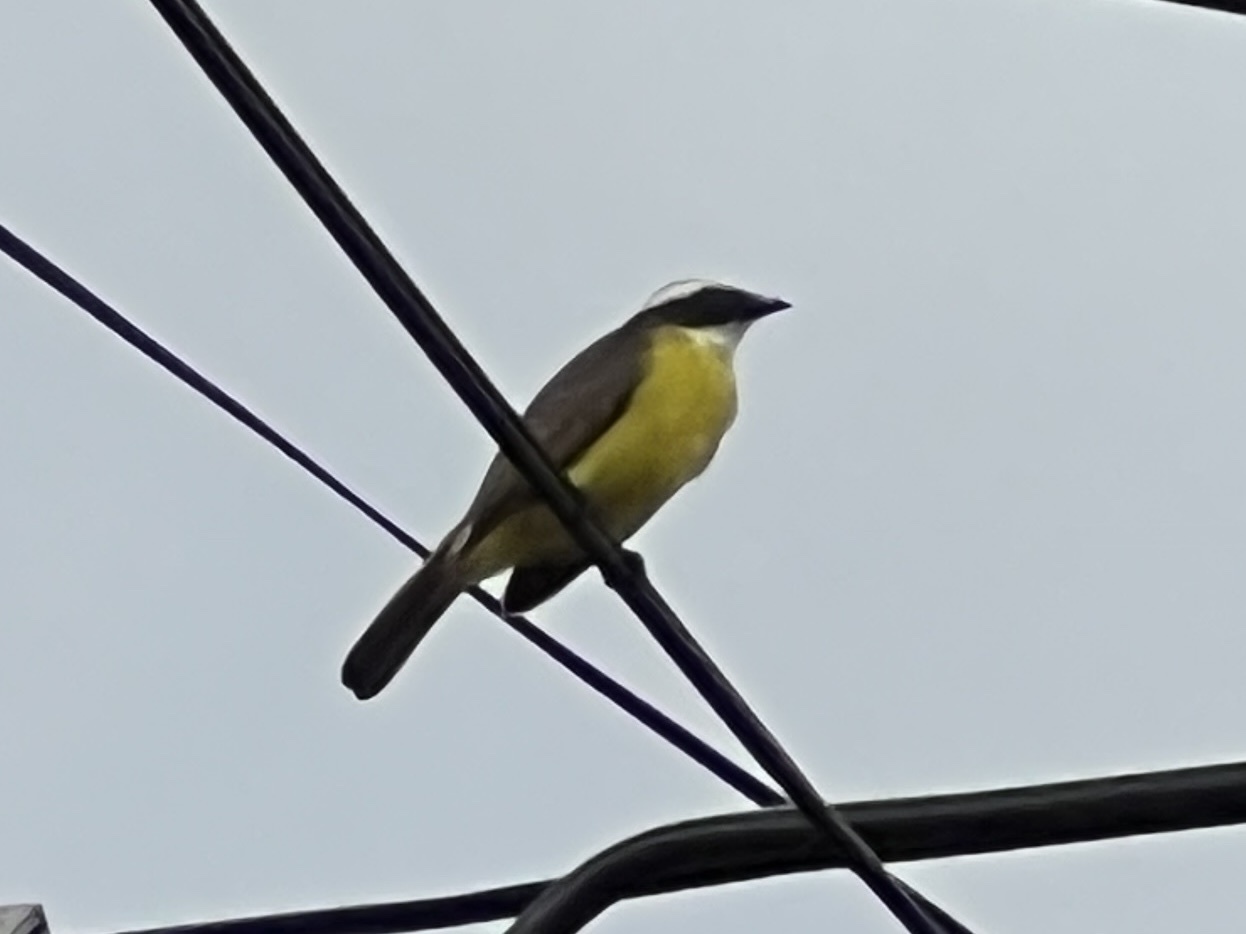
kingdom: Animalia
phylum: Chordata
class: Aves
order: Passeriformes
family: Tyrannidae
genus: Myiozetetes
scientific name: Myiozetetes similis
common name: Social flycatcher
